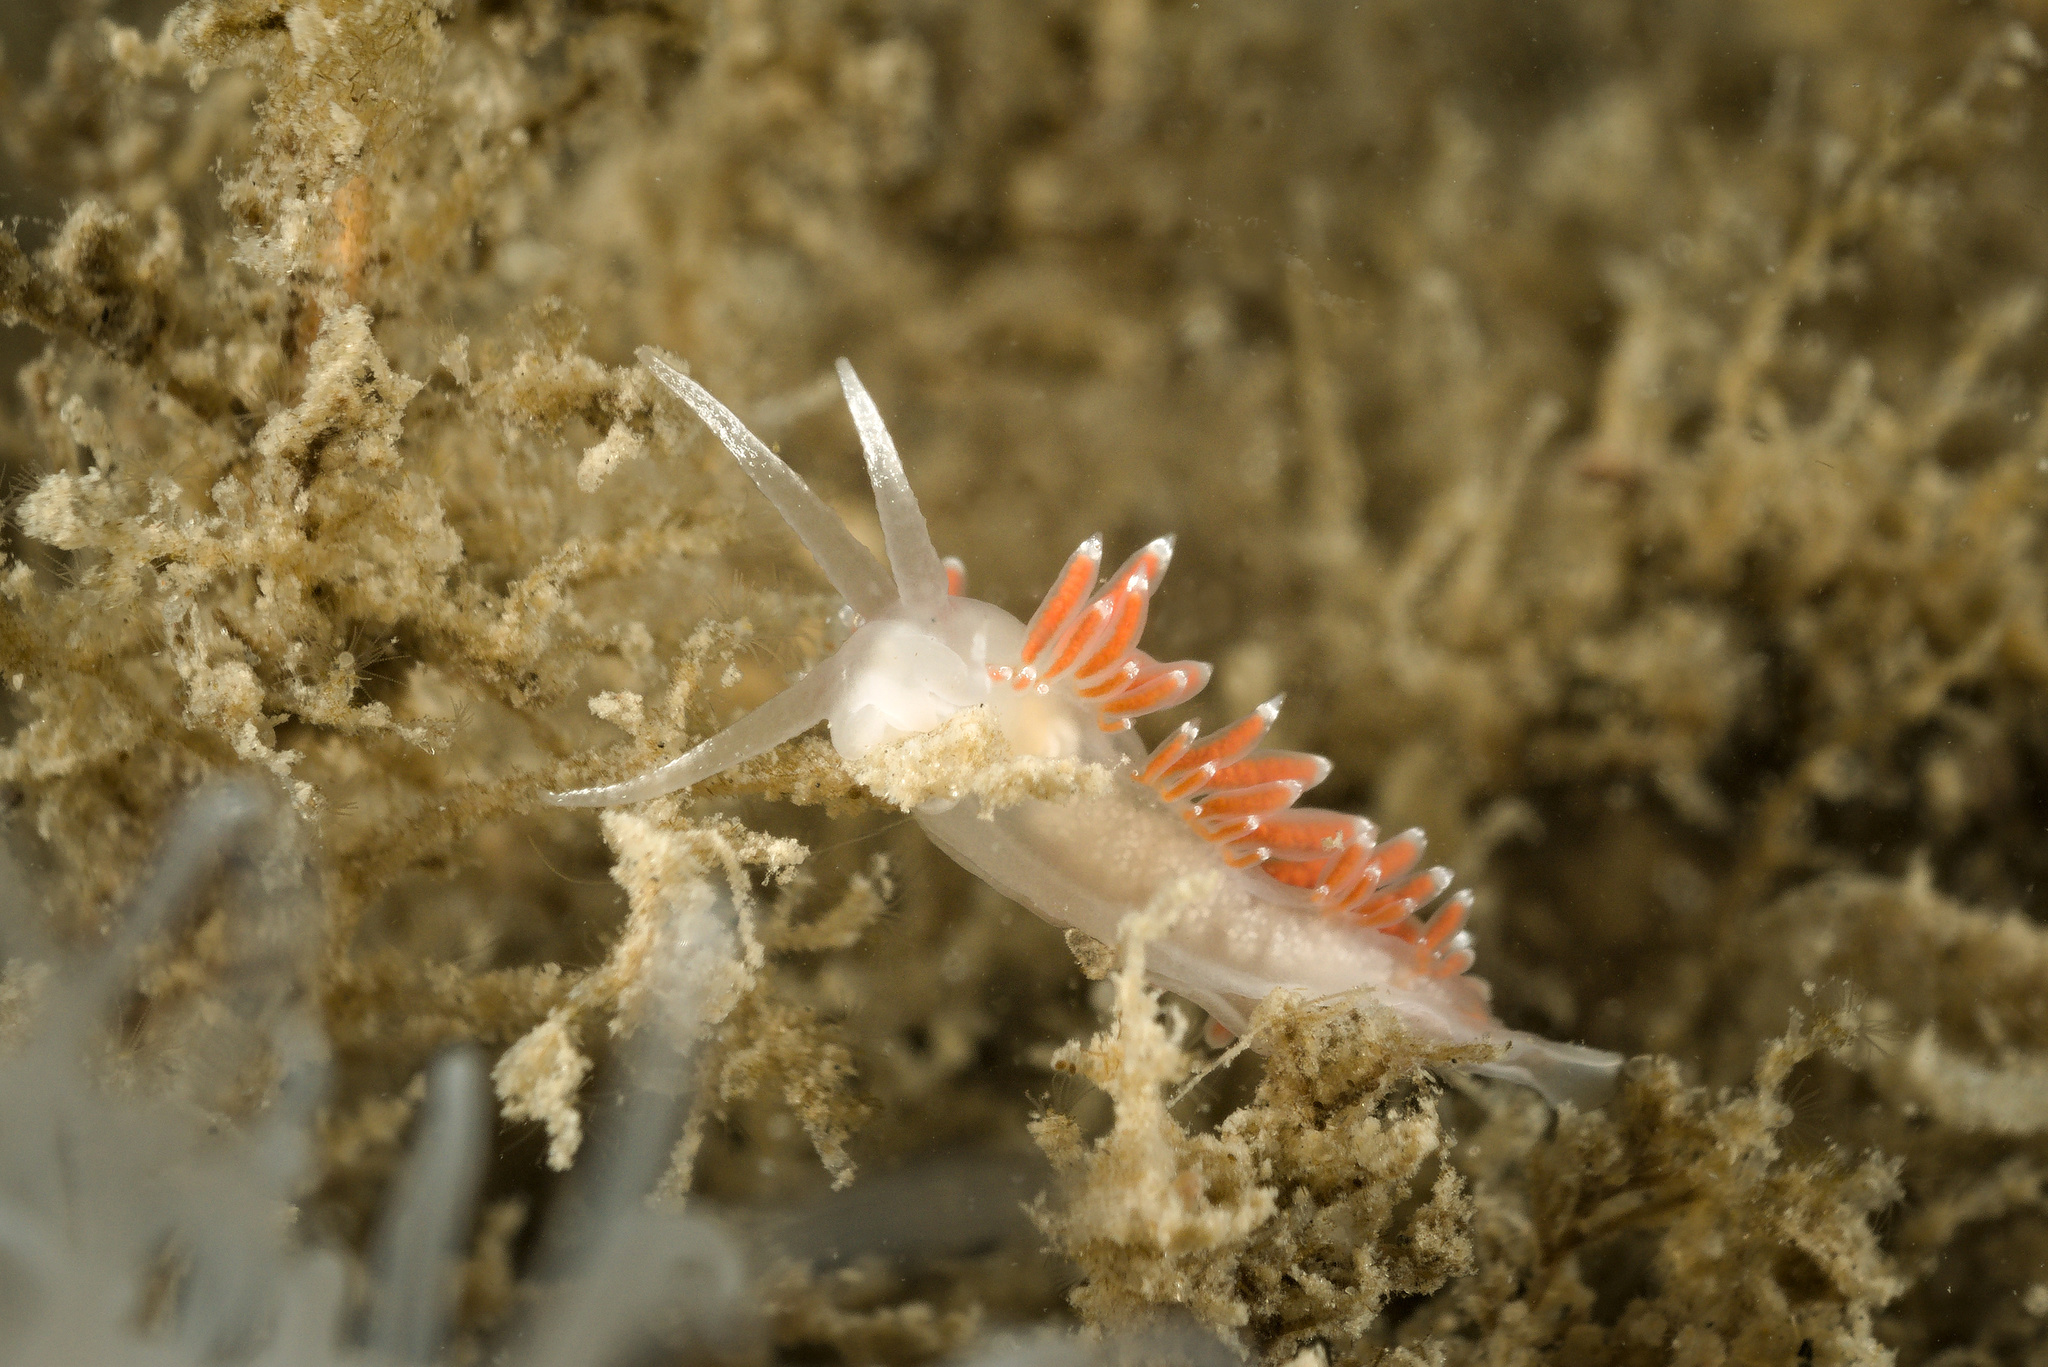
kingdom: Animalia
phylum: Mollusca
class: Gastropoda
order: Nudibranchia
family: Coryphellidae
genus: Coryphella
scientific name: Coryphella gracilis
